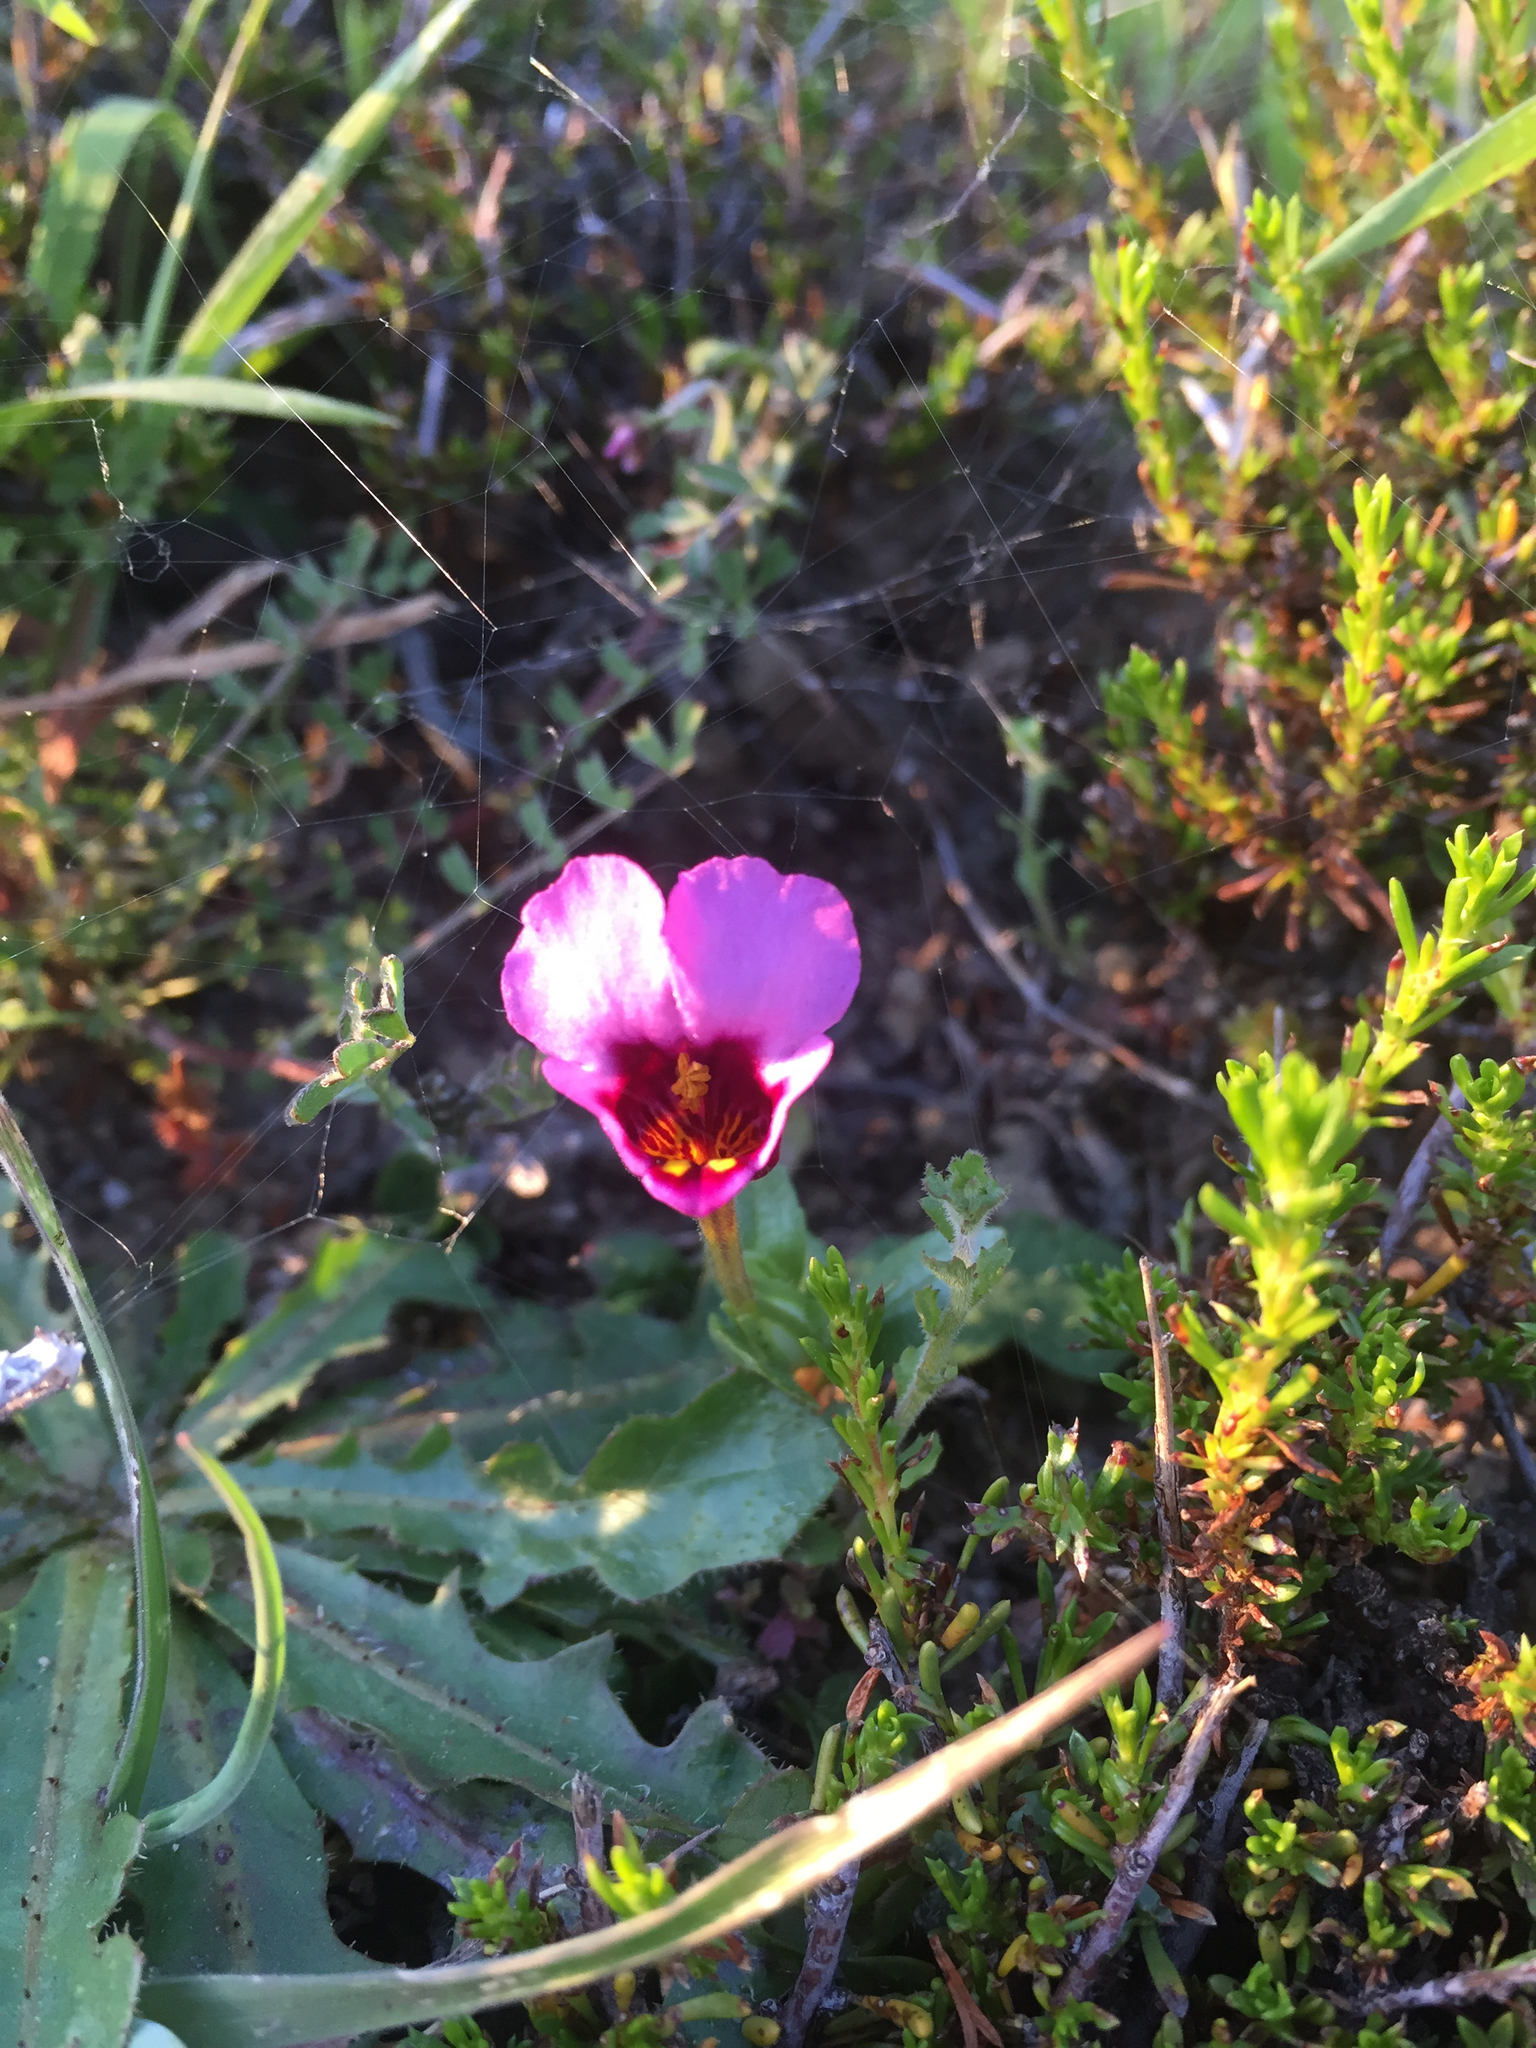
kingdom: Plantae
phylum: Tracheophyta
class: Magnoliopsida
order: Lamiales
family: Phrymaceae
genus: Diplacus
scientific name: Diplacus douglasii
